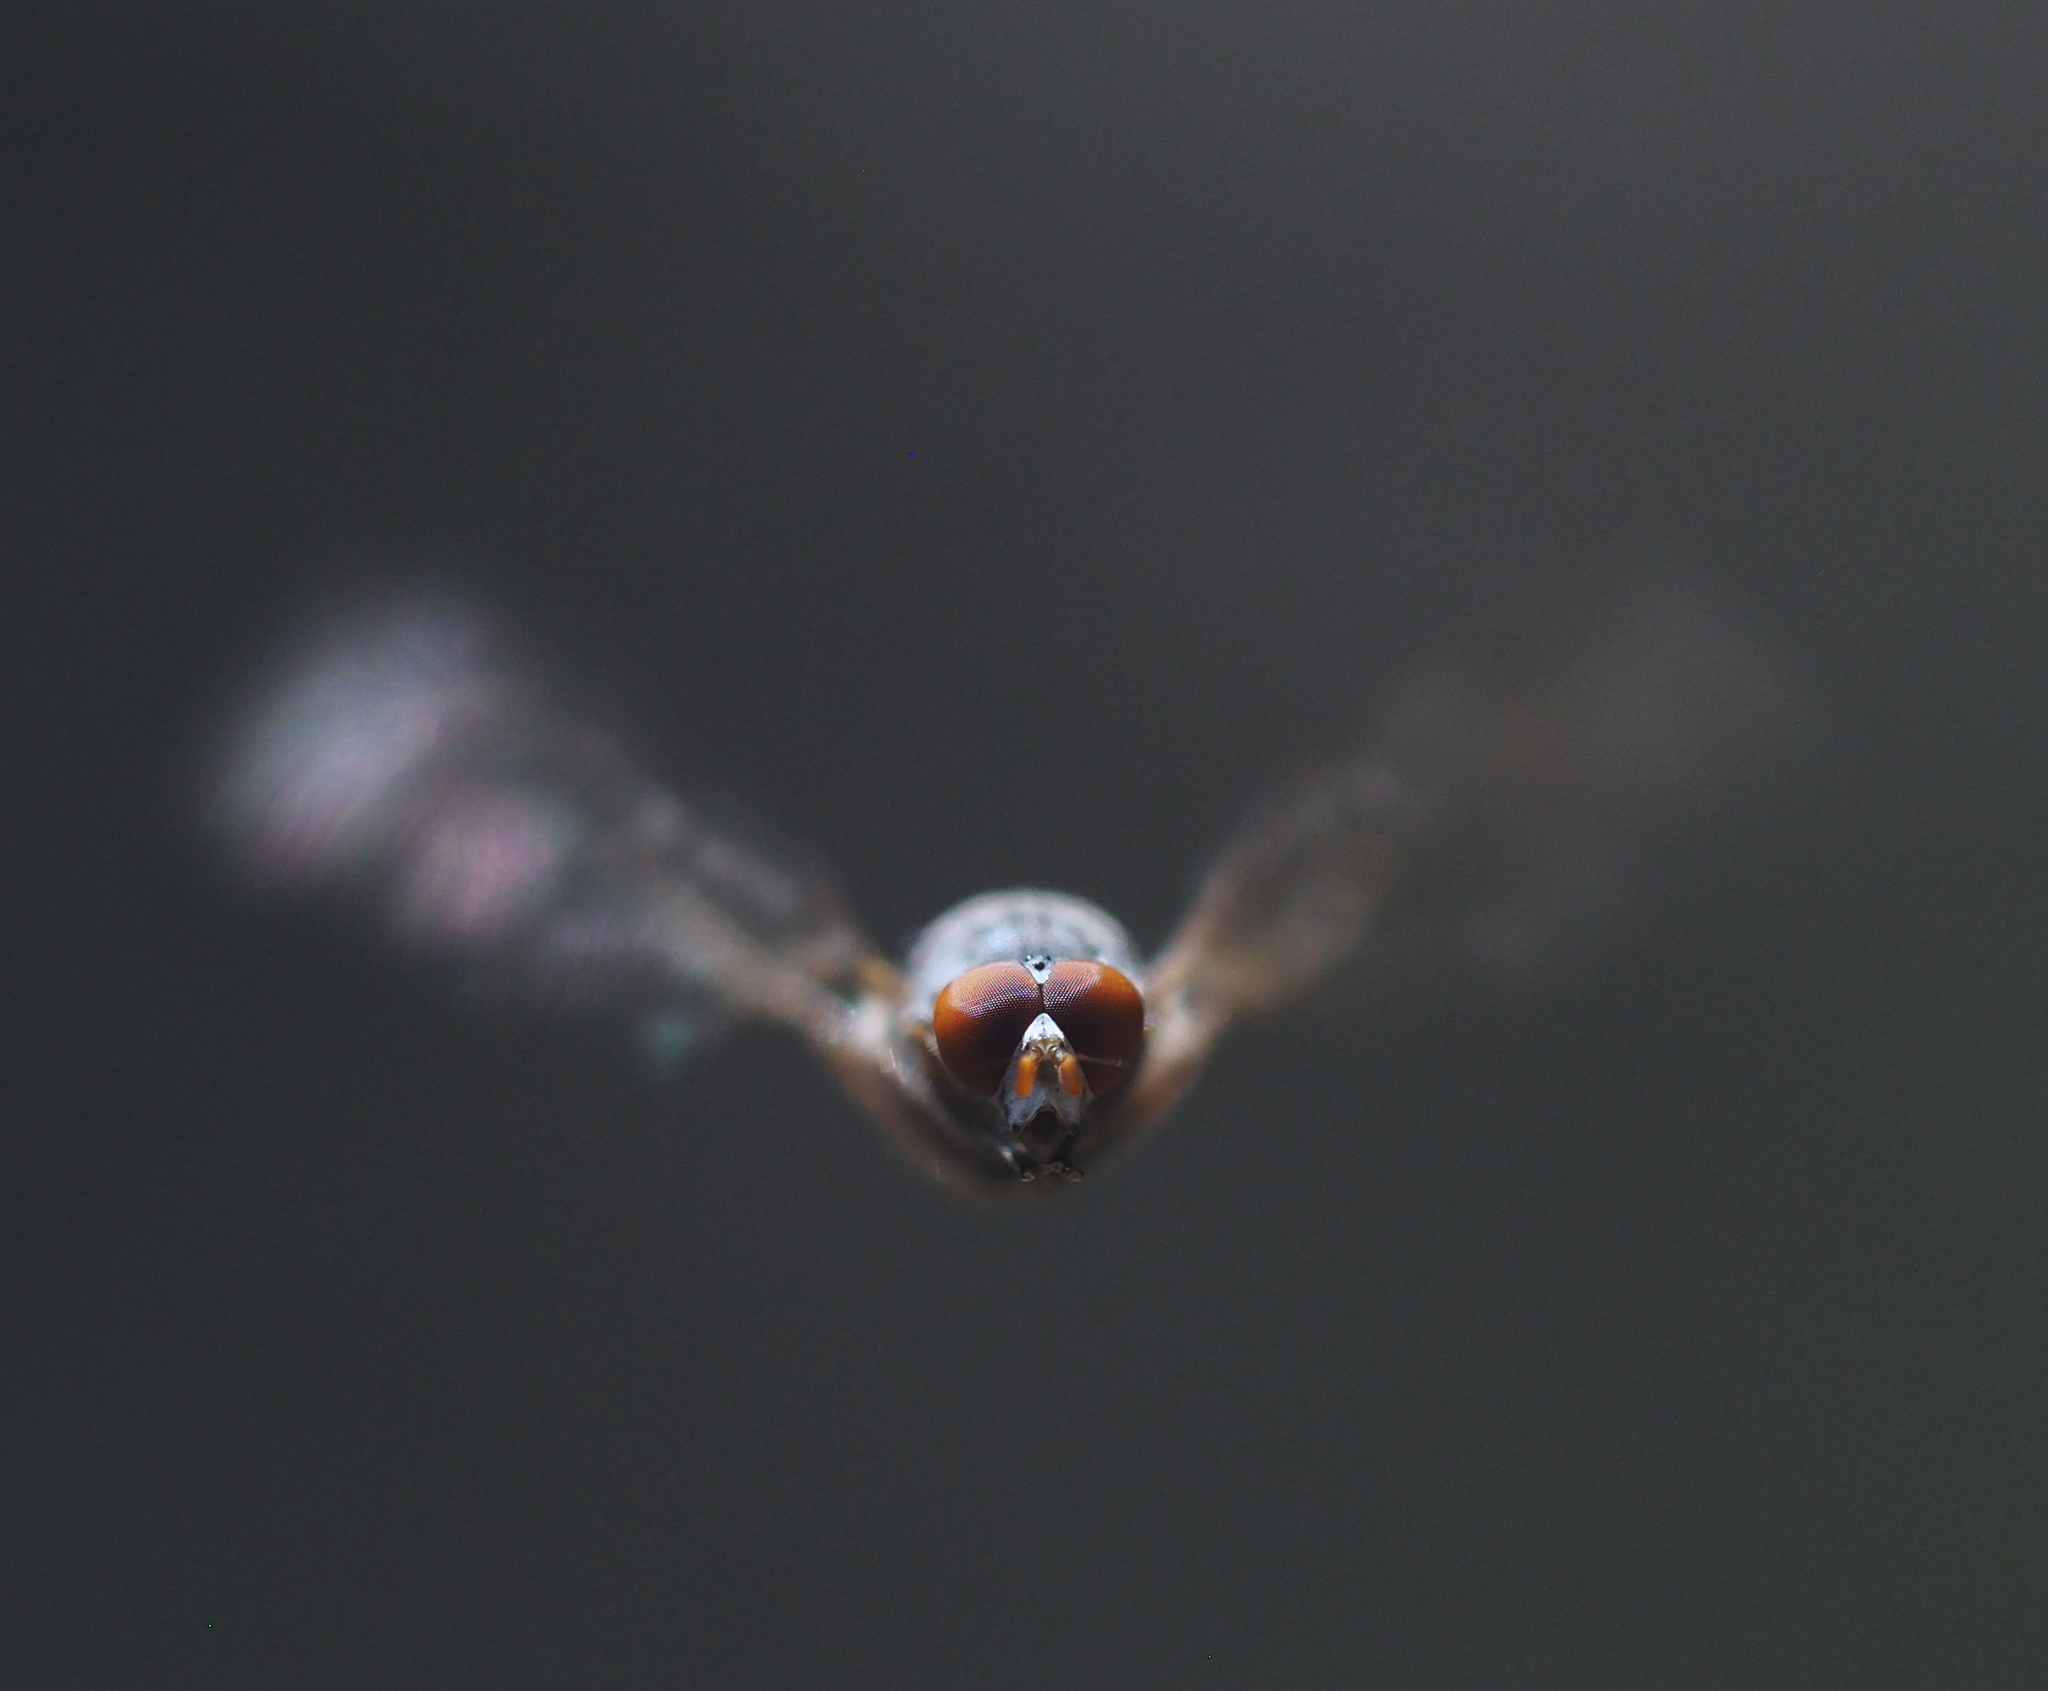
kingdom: Animalia
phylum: Arthropoda
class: Insecta
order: Diptera
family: Syrphidae
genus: Brachyopa
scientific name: Brachyopa insensilis
